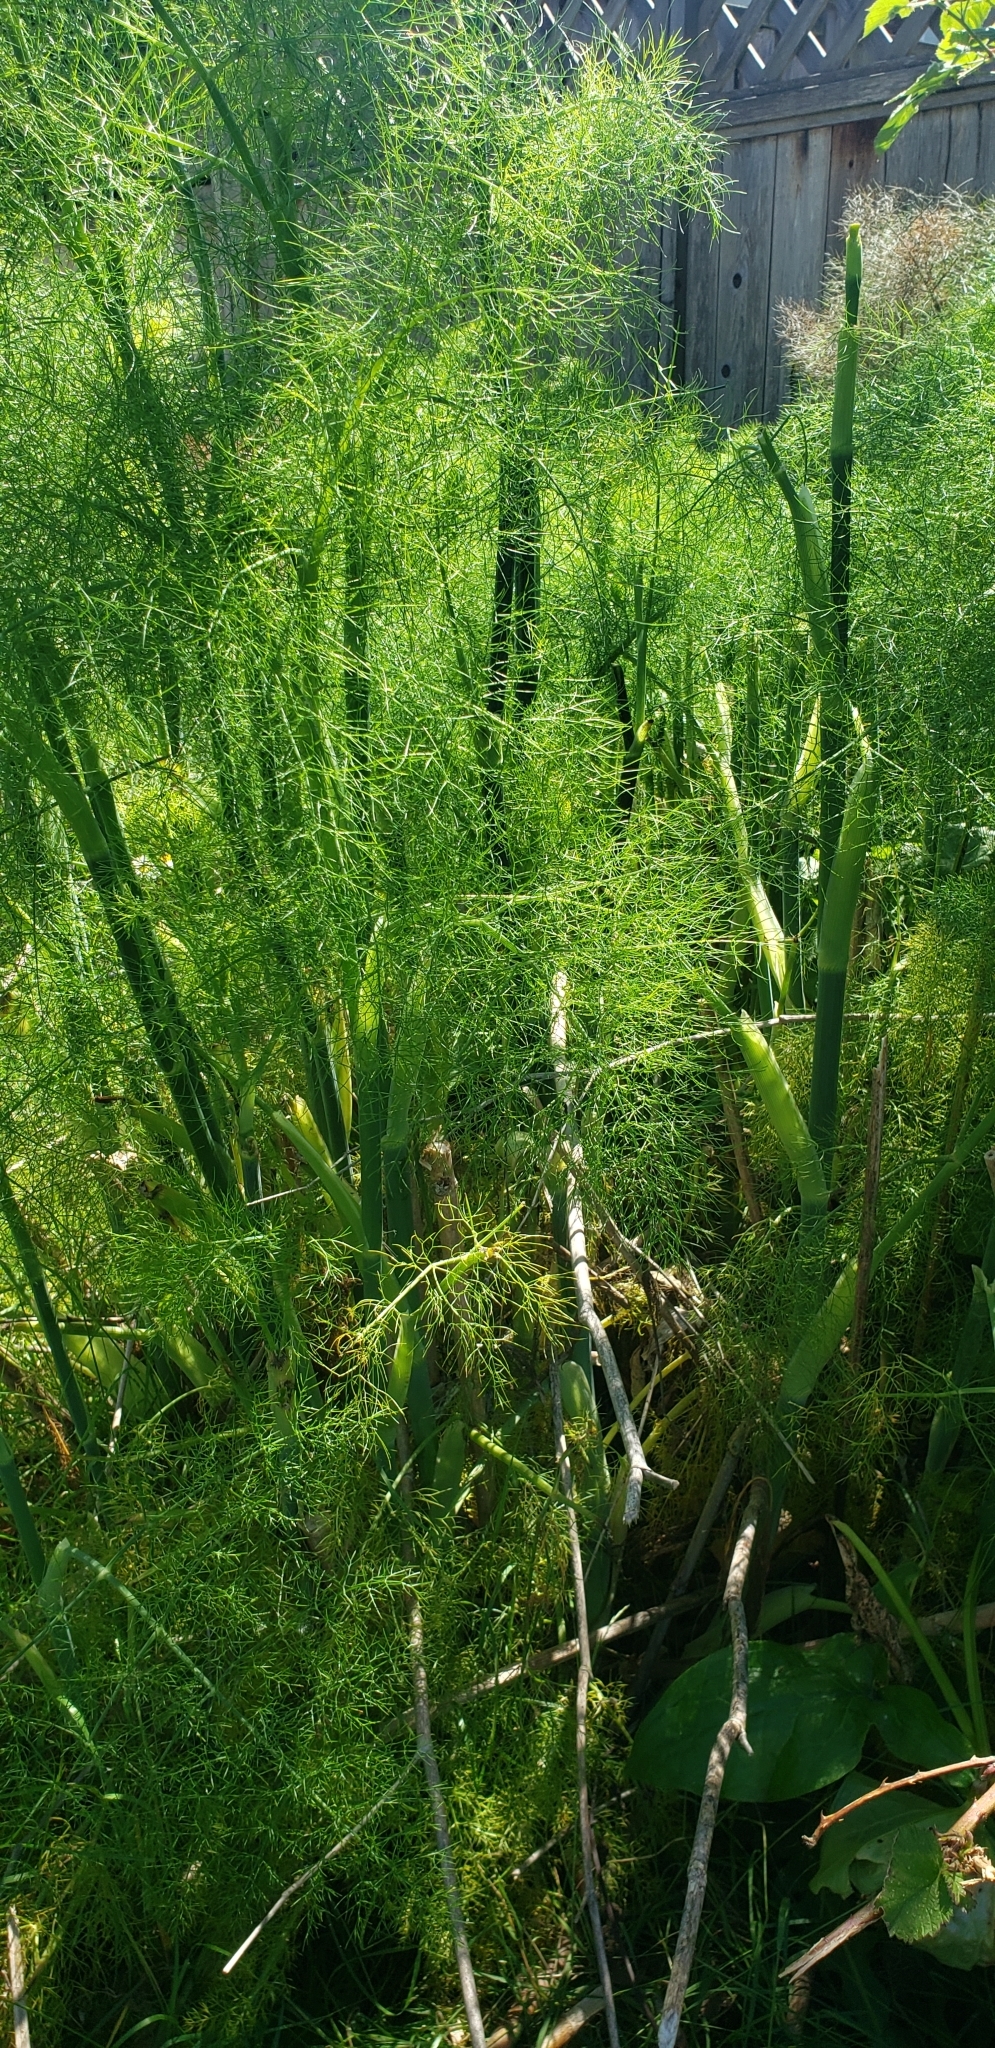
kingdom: Plantae
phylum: Tracheophyta
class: Magnoliopsida
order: Apiales
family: Apiaceae
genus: Foeniculum
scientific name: Foeniculum vulgare
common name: Fennel
